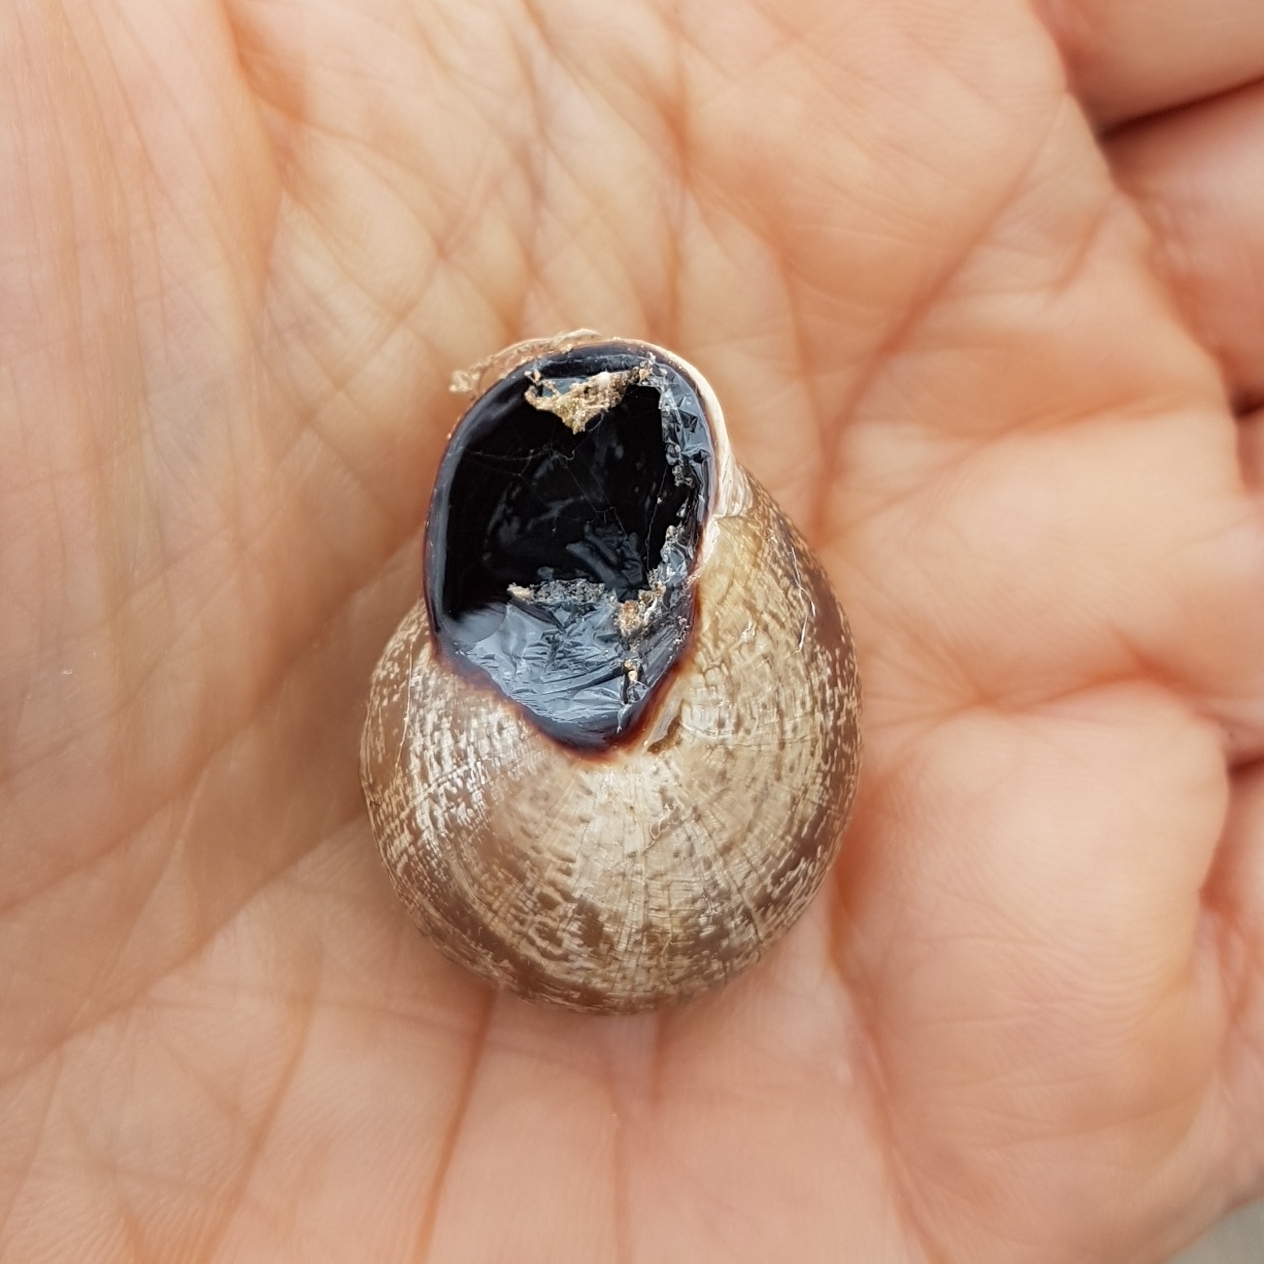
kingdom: Animalia
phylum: Mollusca
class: Gastropoda
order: Stylommatophora
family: Helicidae
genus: Otala
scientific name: Otala lactea
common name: Milk snail
